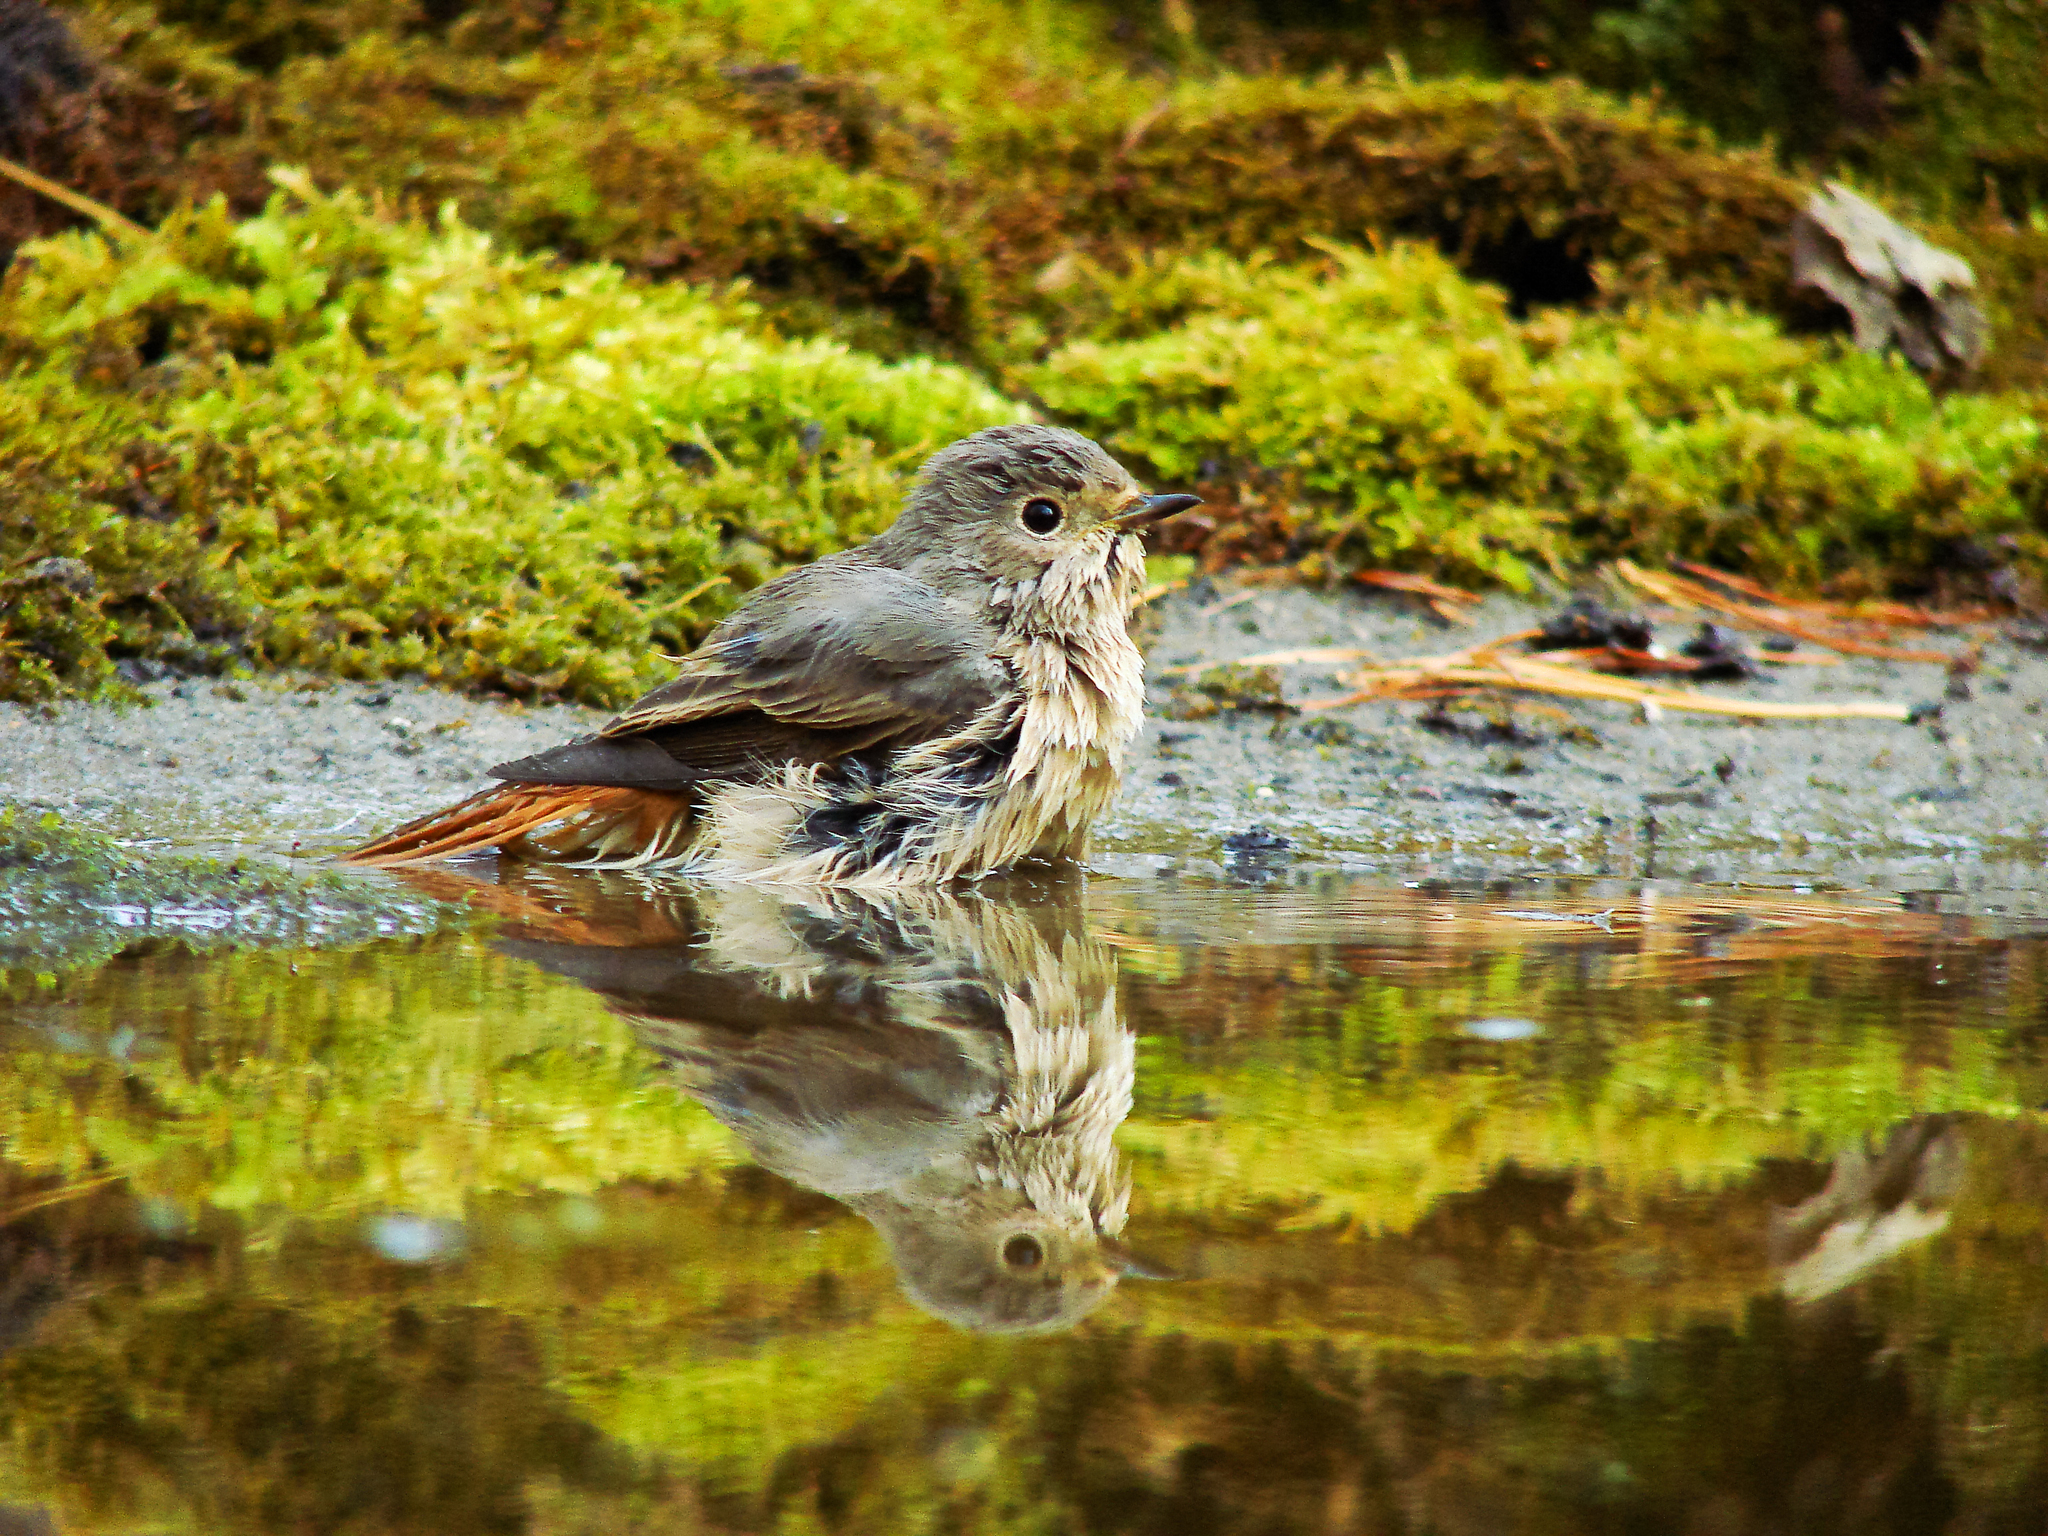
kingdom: Animalia
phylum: Chordata
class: Aves
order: Passeriformes
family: Muscicapidae
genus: Phoenicurus
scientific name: Phoenicurus phoenicurus
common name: Common redstart
